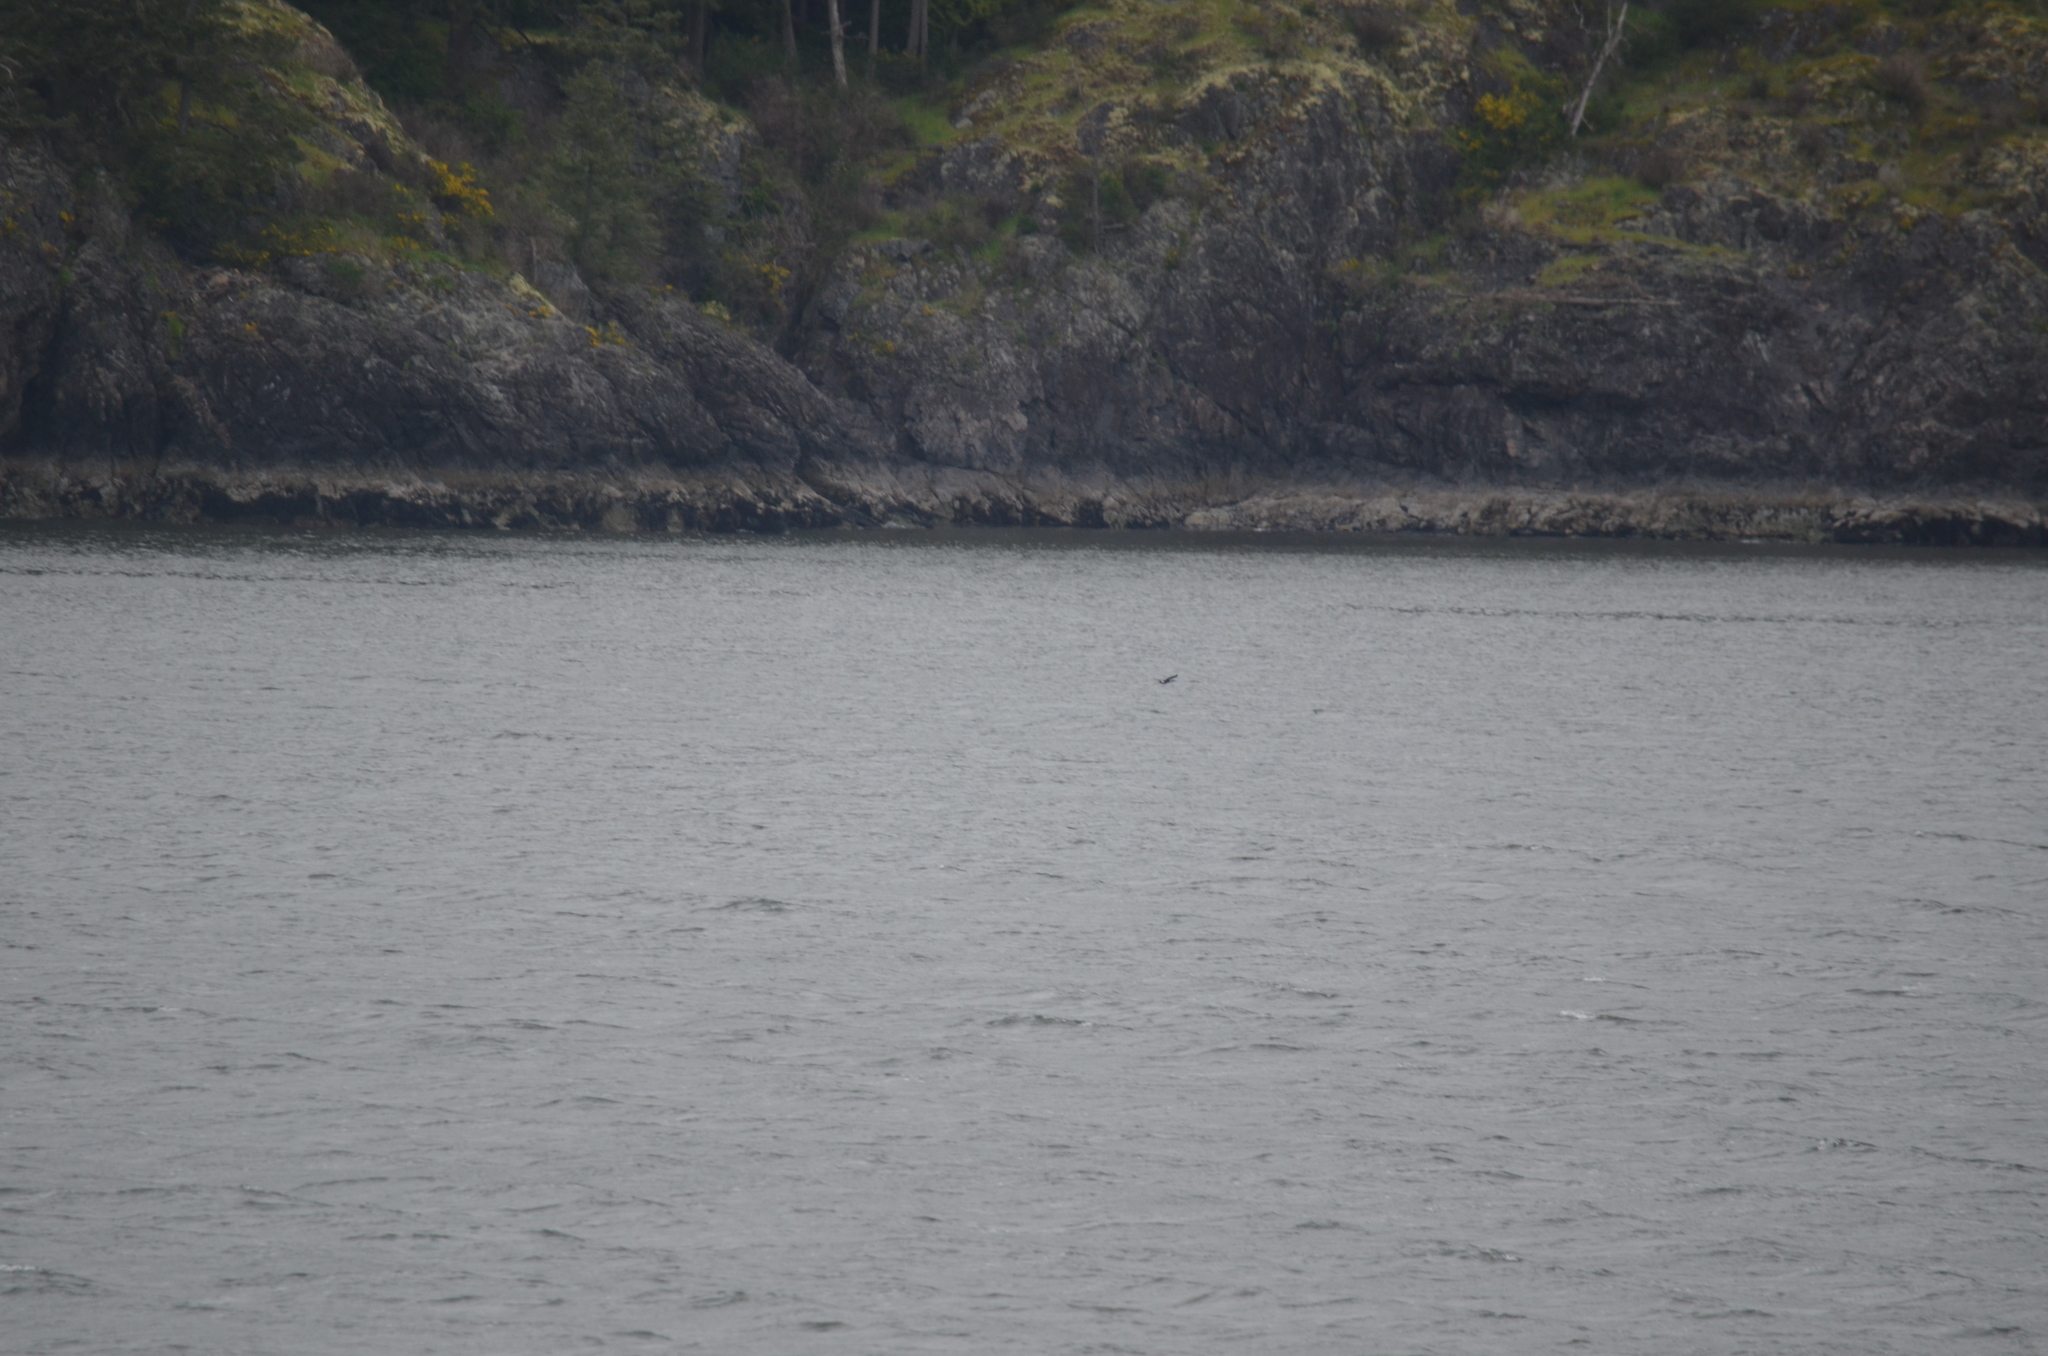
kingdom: Animalia
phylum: Chordata
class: Aves
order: Suliformes
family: Phalacrocoracidae
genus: Phalacrocorax
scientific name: Phalacrocorax pelagicus
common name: Pelagic cormorant
